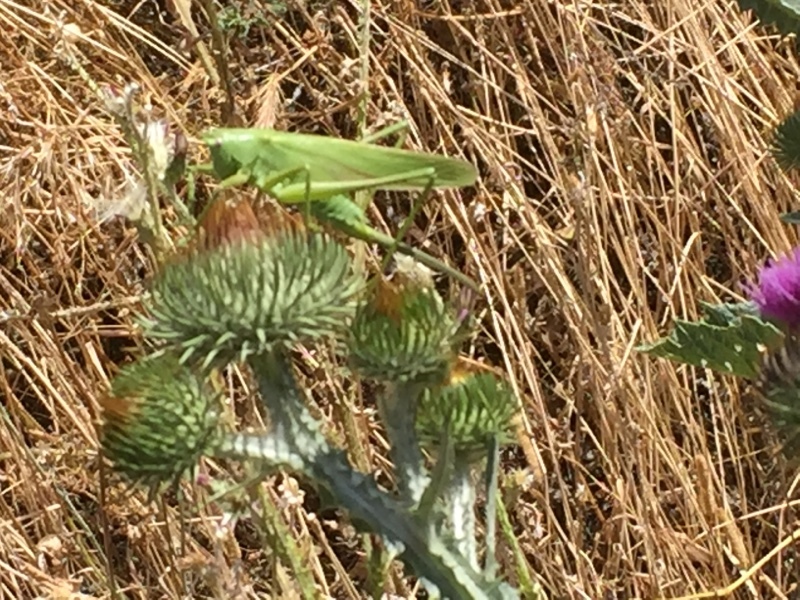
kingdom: Animalia
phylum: Arthropoda
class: Insecta
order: Orthoptera
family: Tettigoniidae
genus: Tettigonia
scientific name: Tettigonia caudata
